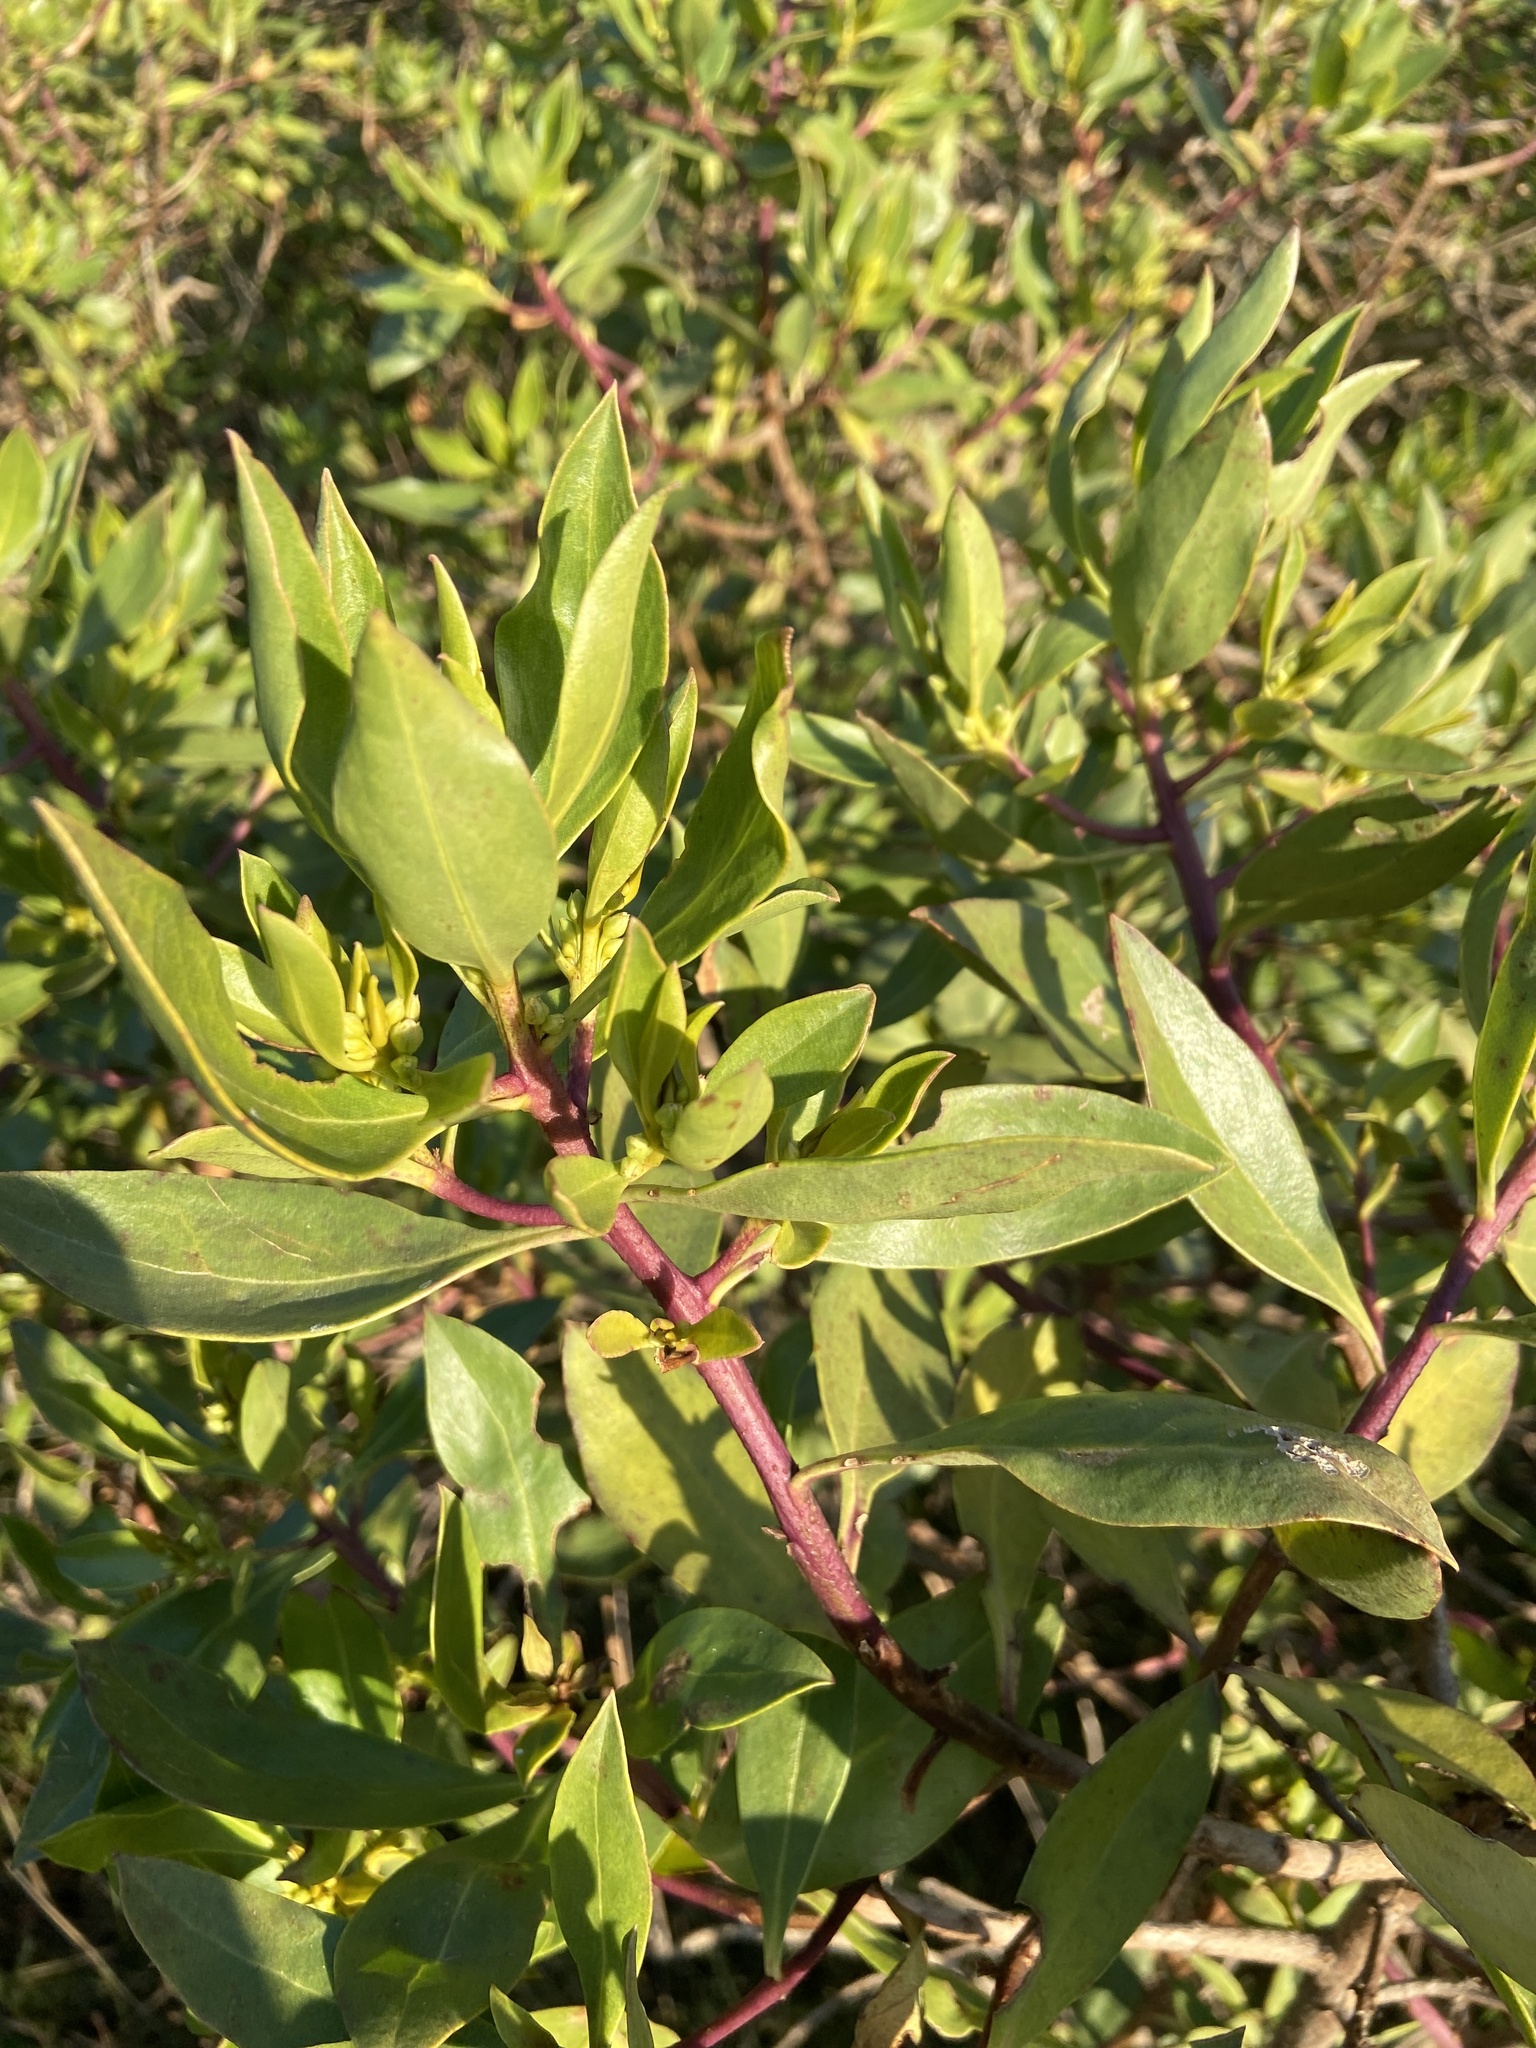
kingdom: Plantae
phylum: Tracheophyta
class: Magnoliopsida
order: Lamiales
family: Scrophulariaceae
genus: Myoporum
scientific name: Myoporum laetum
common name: Ngaio tree
